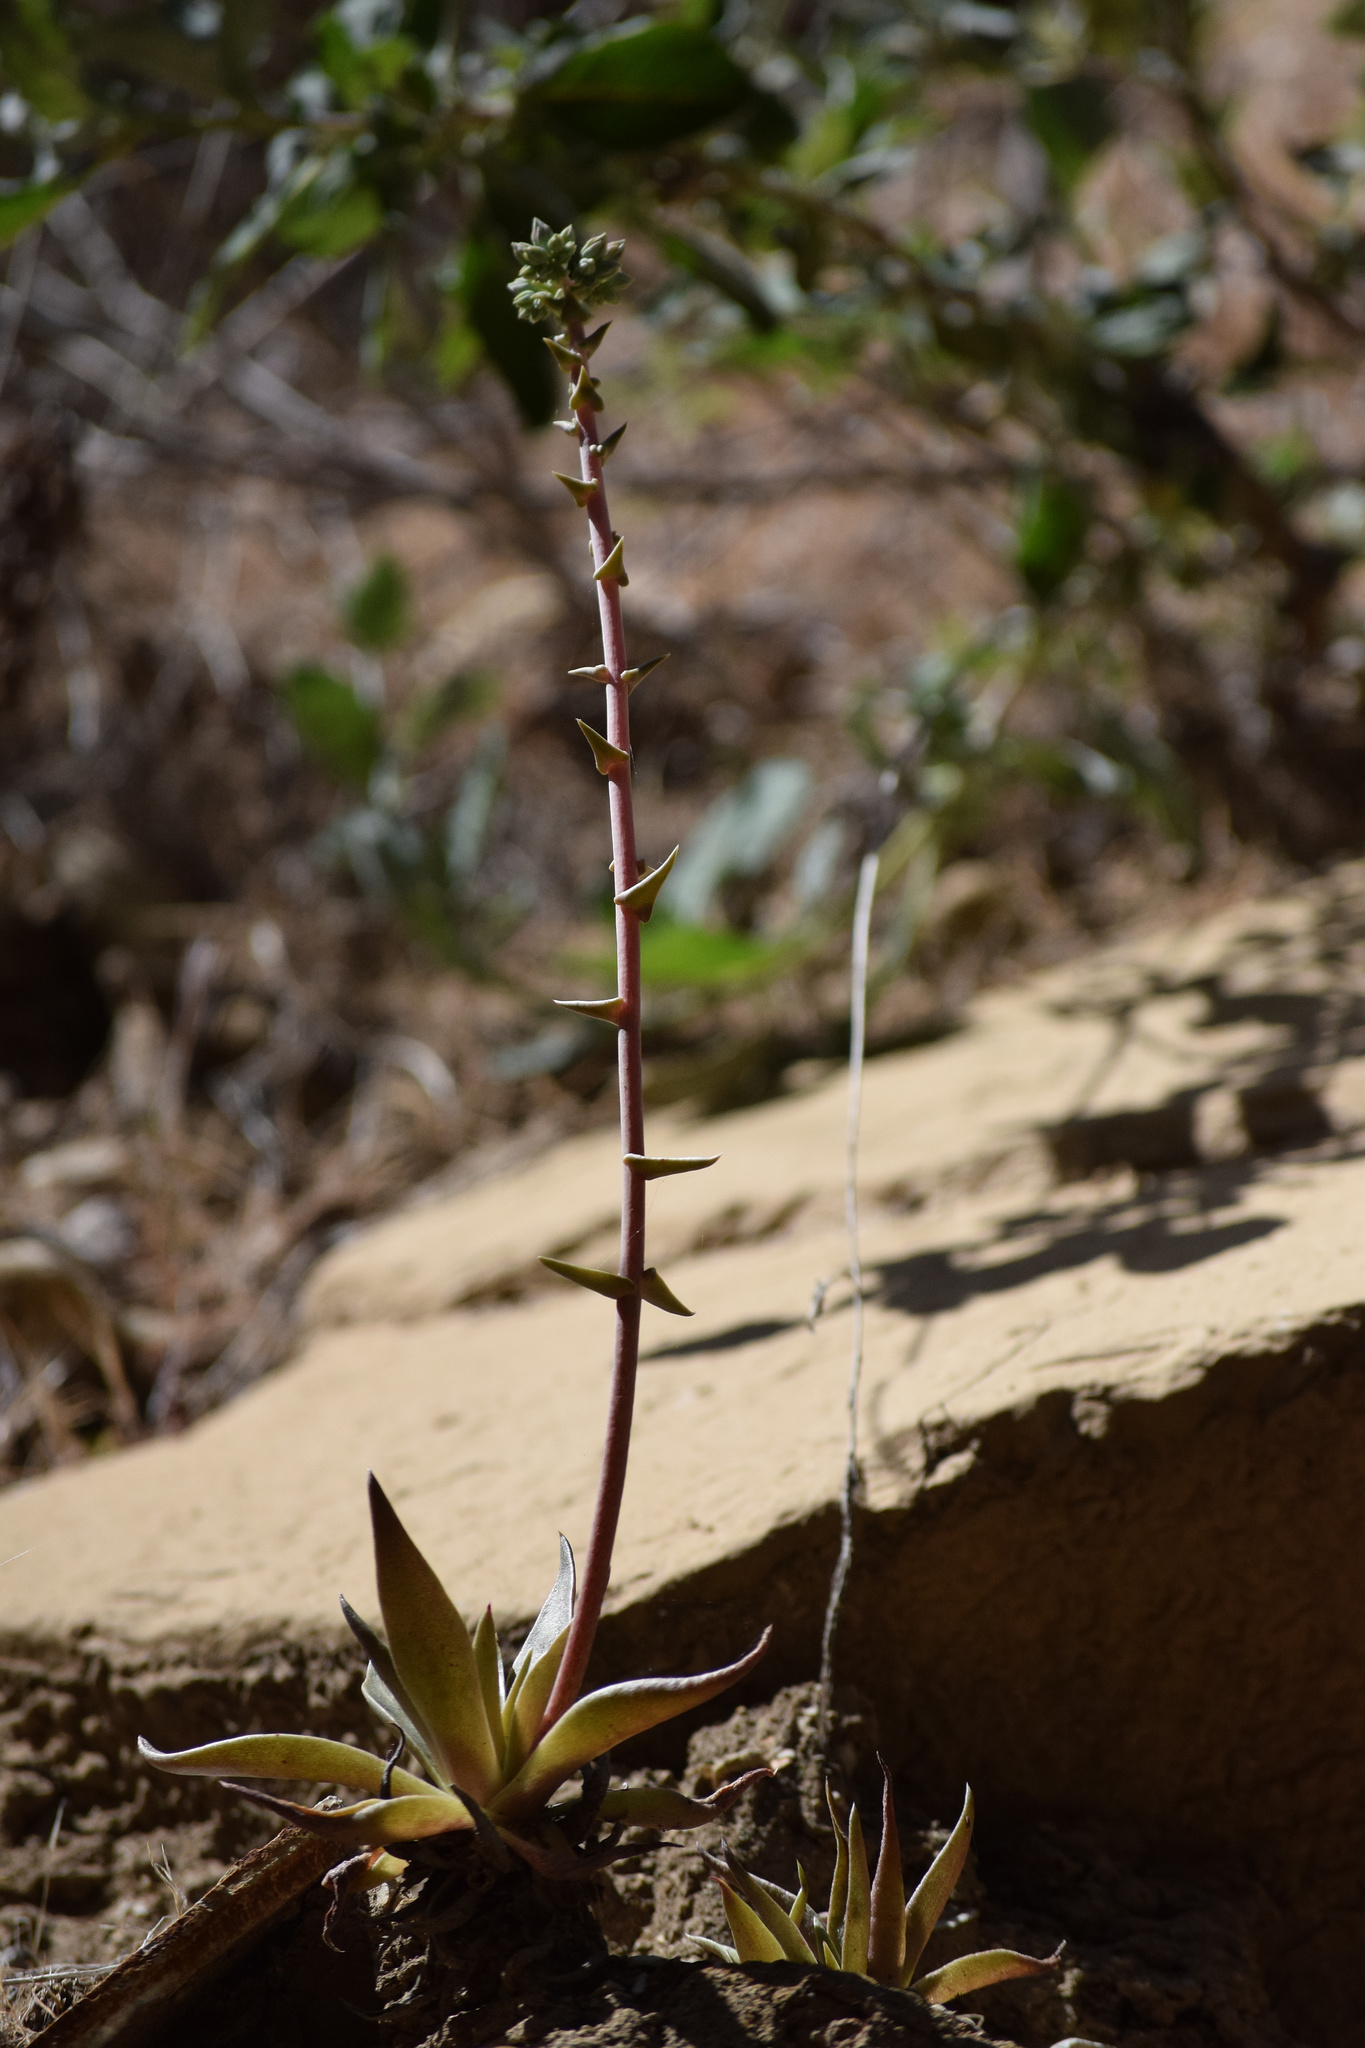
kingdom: Plantae
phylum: Tracheophyta
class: Magnoliopsida
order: Saxifragales
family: Crassulaceae
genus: Dudleya
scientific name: Dudleya lanceolata
